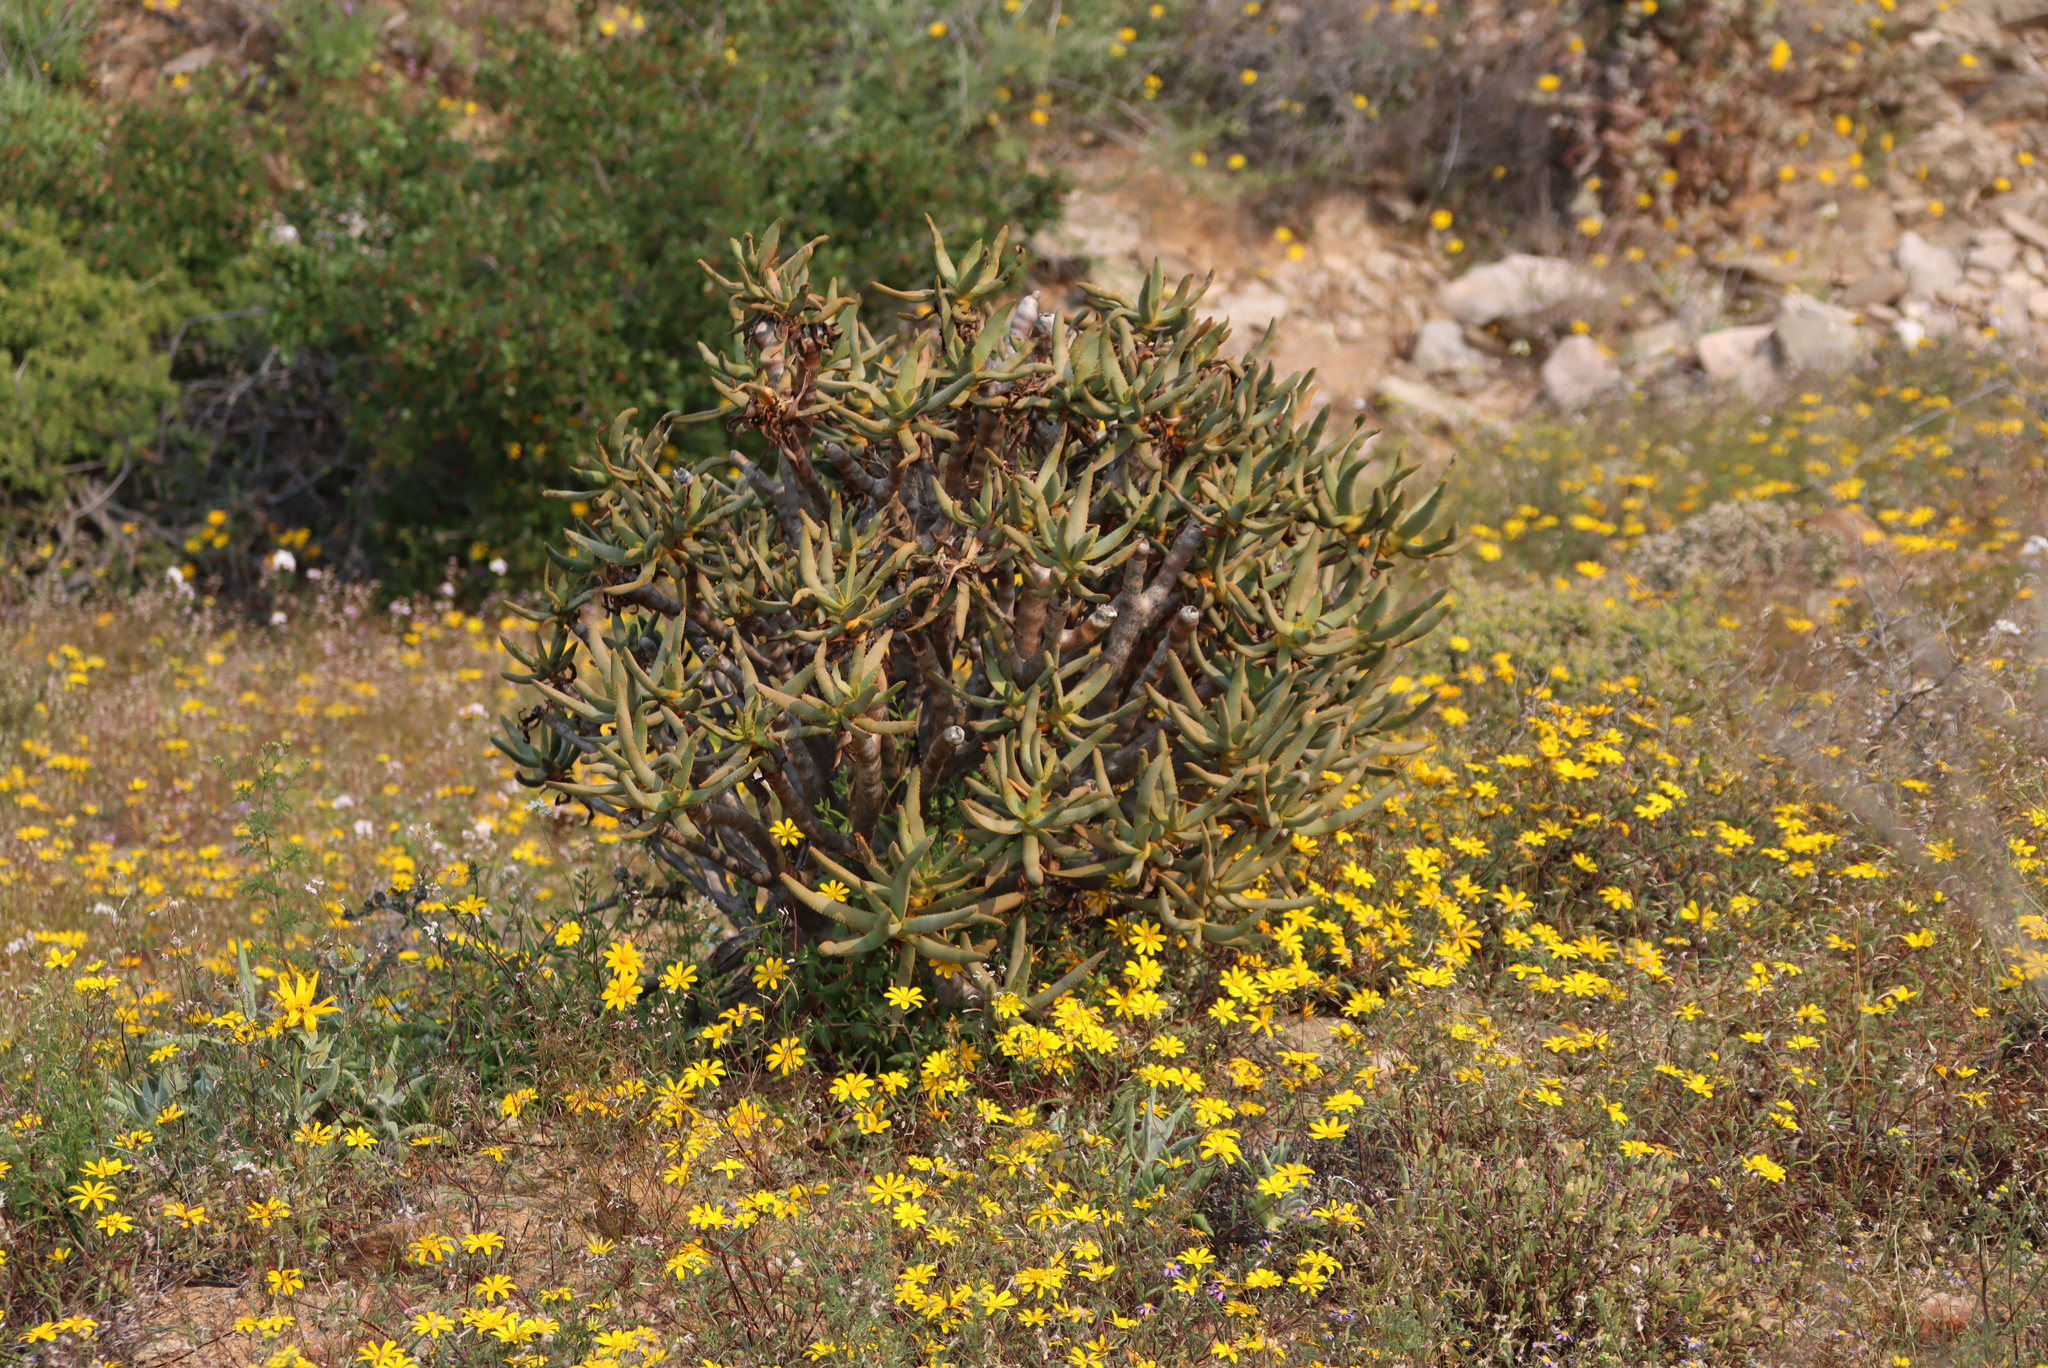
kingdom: Plantae
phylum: Tracheophyta
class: Liliopsida
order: Asparagales
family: Asphodelaceae
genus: Aloidendron
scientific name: Aloidendron ramosissimum
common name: Bush quiver tree
